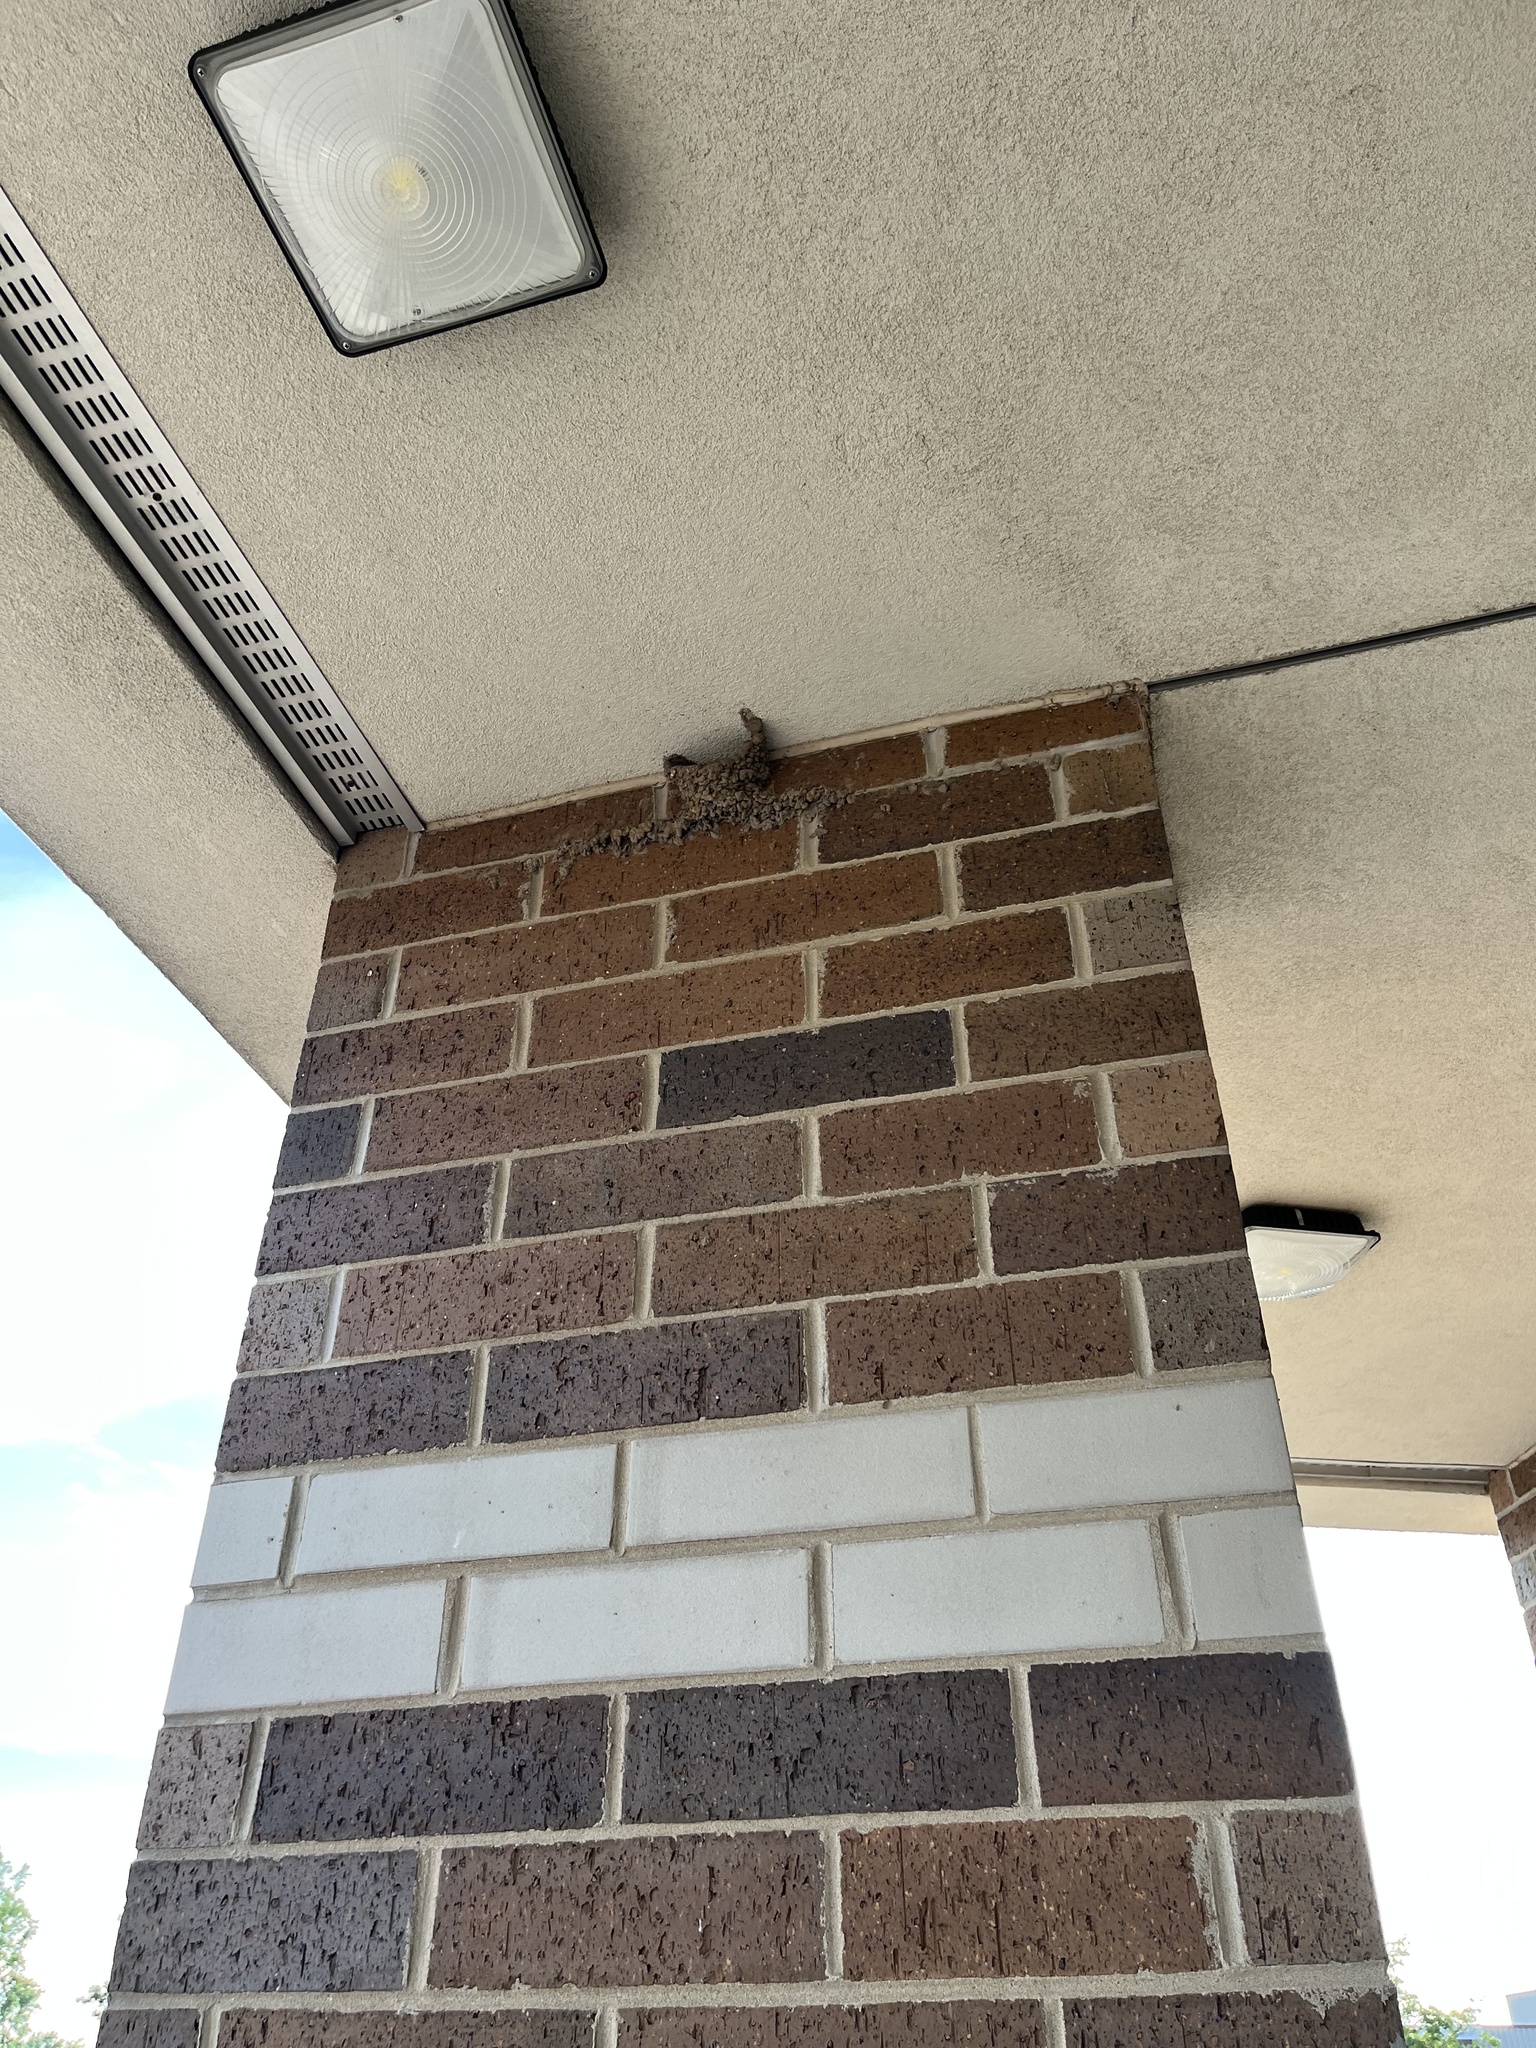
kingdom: Animalia
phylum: Chordata
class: Aves
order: Passeriformes
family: Hirundinidae
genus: Petrochelidon
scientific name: Petrochelidon pyrrhonota
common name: American cliff swallow
